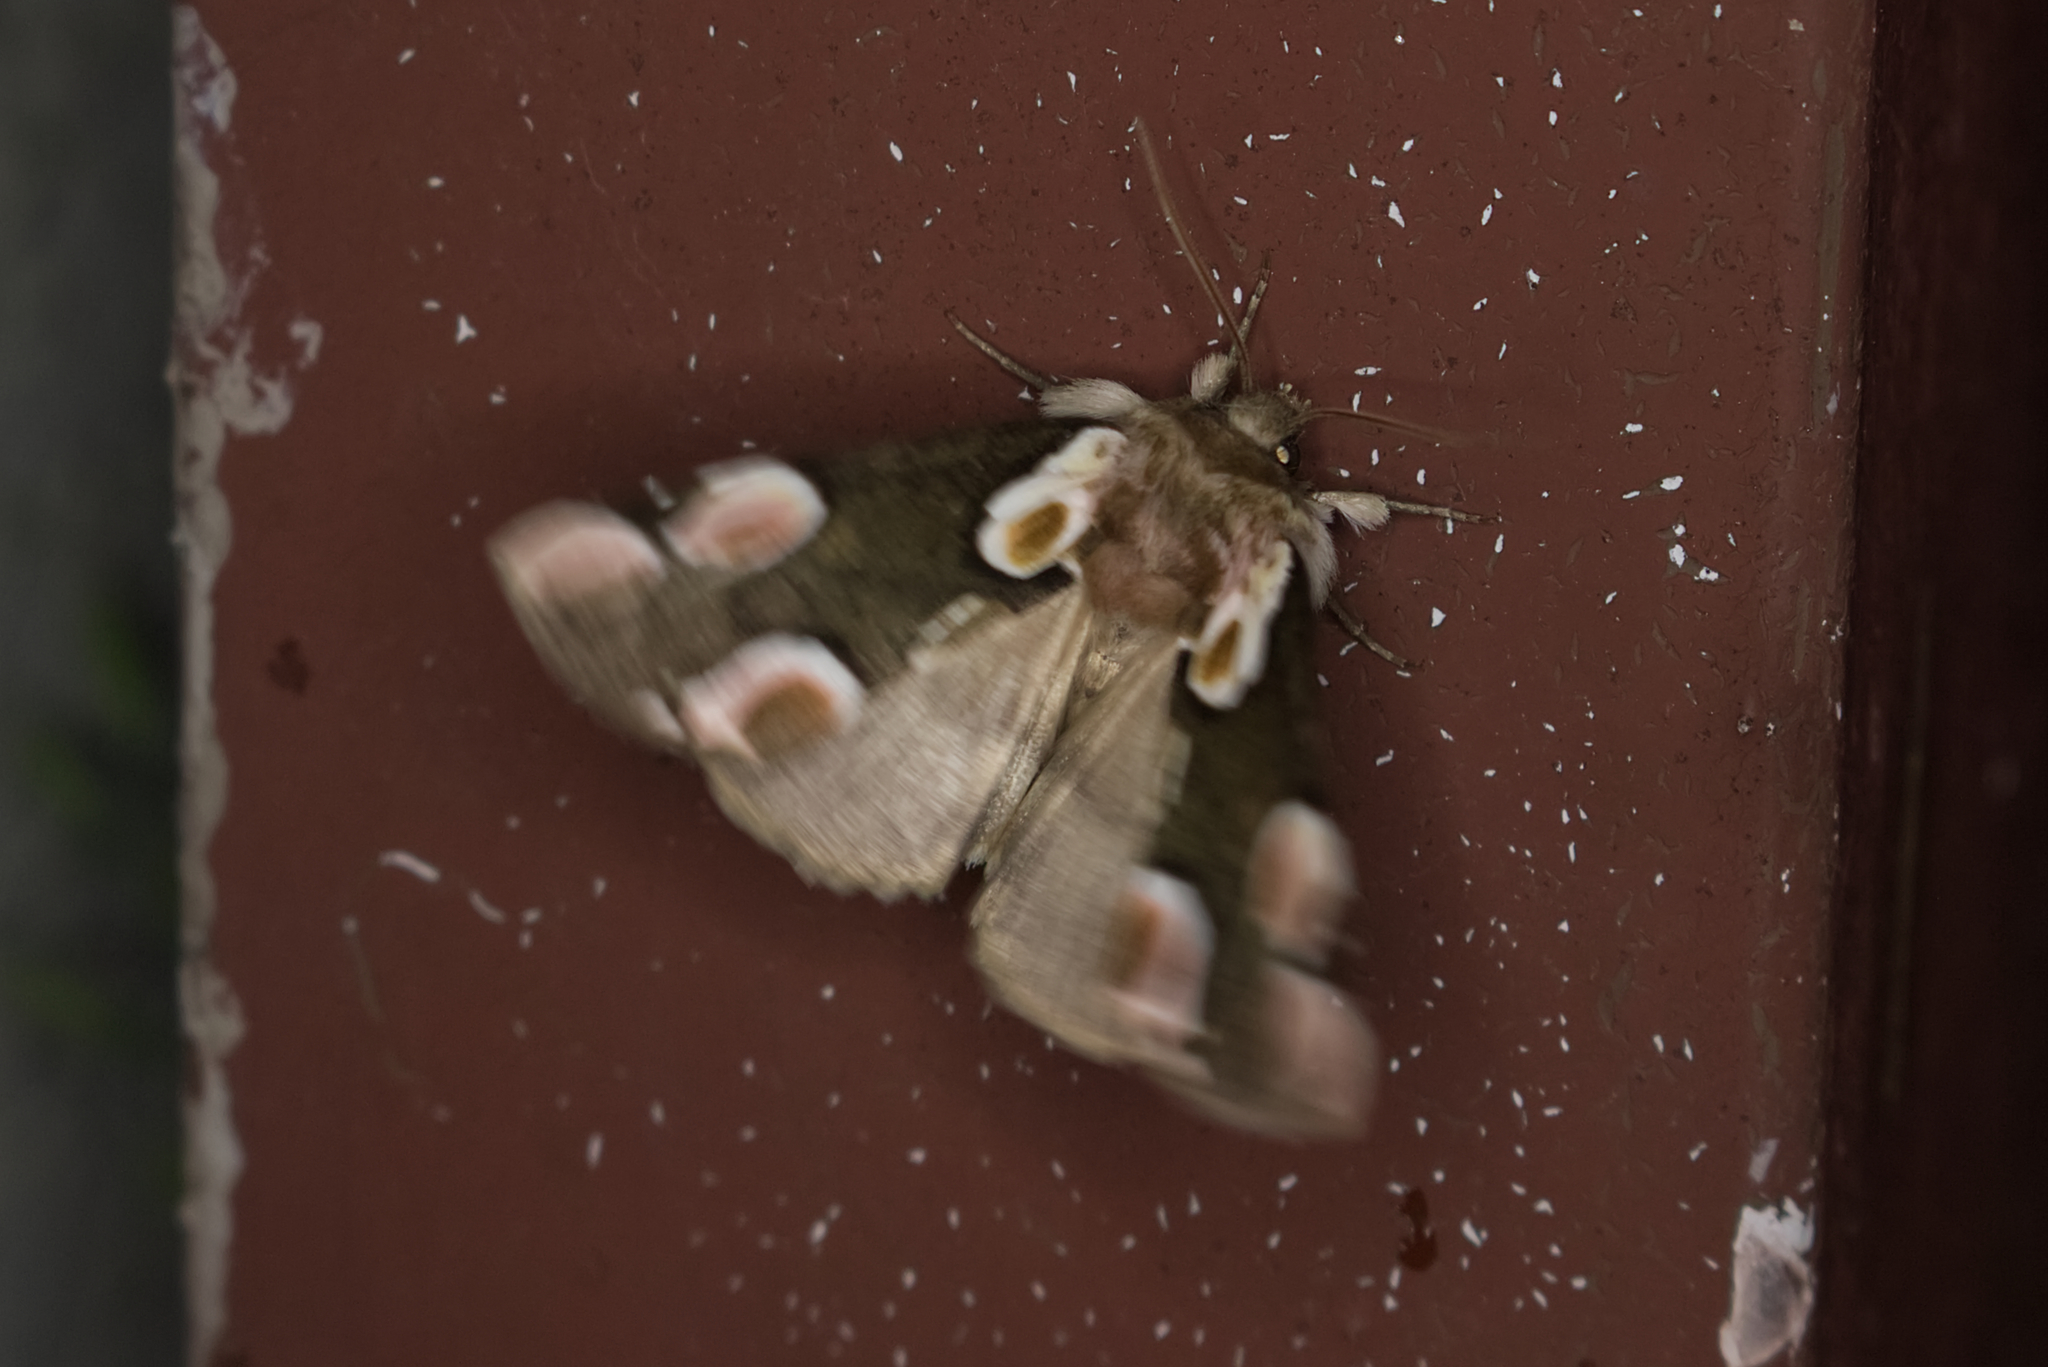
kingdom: Animalia
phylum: Arthropoda
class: Insecta
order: Lepidoptera
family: Drepanidae
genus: Thyatira
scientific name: Thyatira batis
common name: Peach blossom
